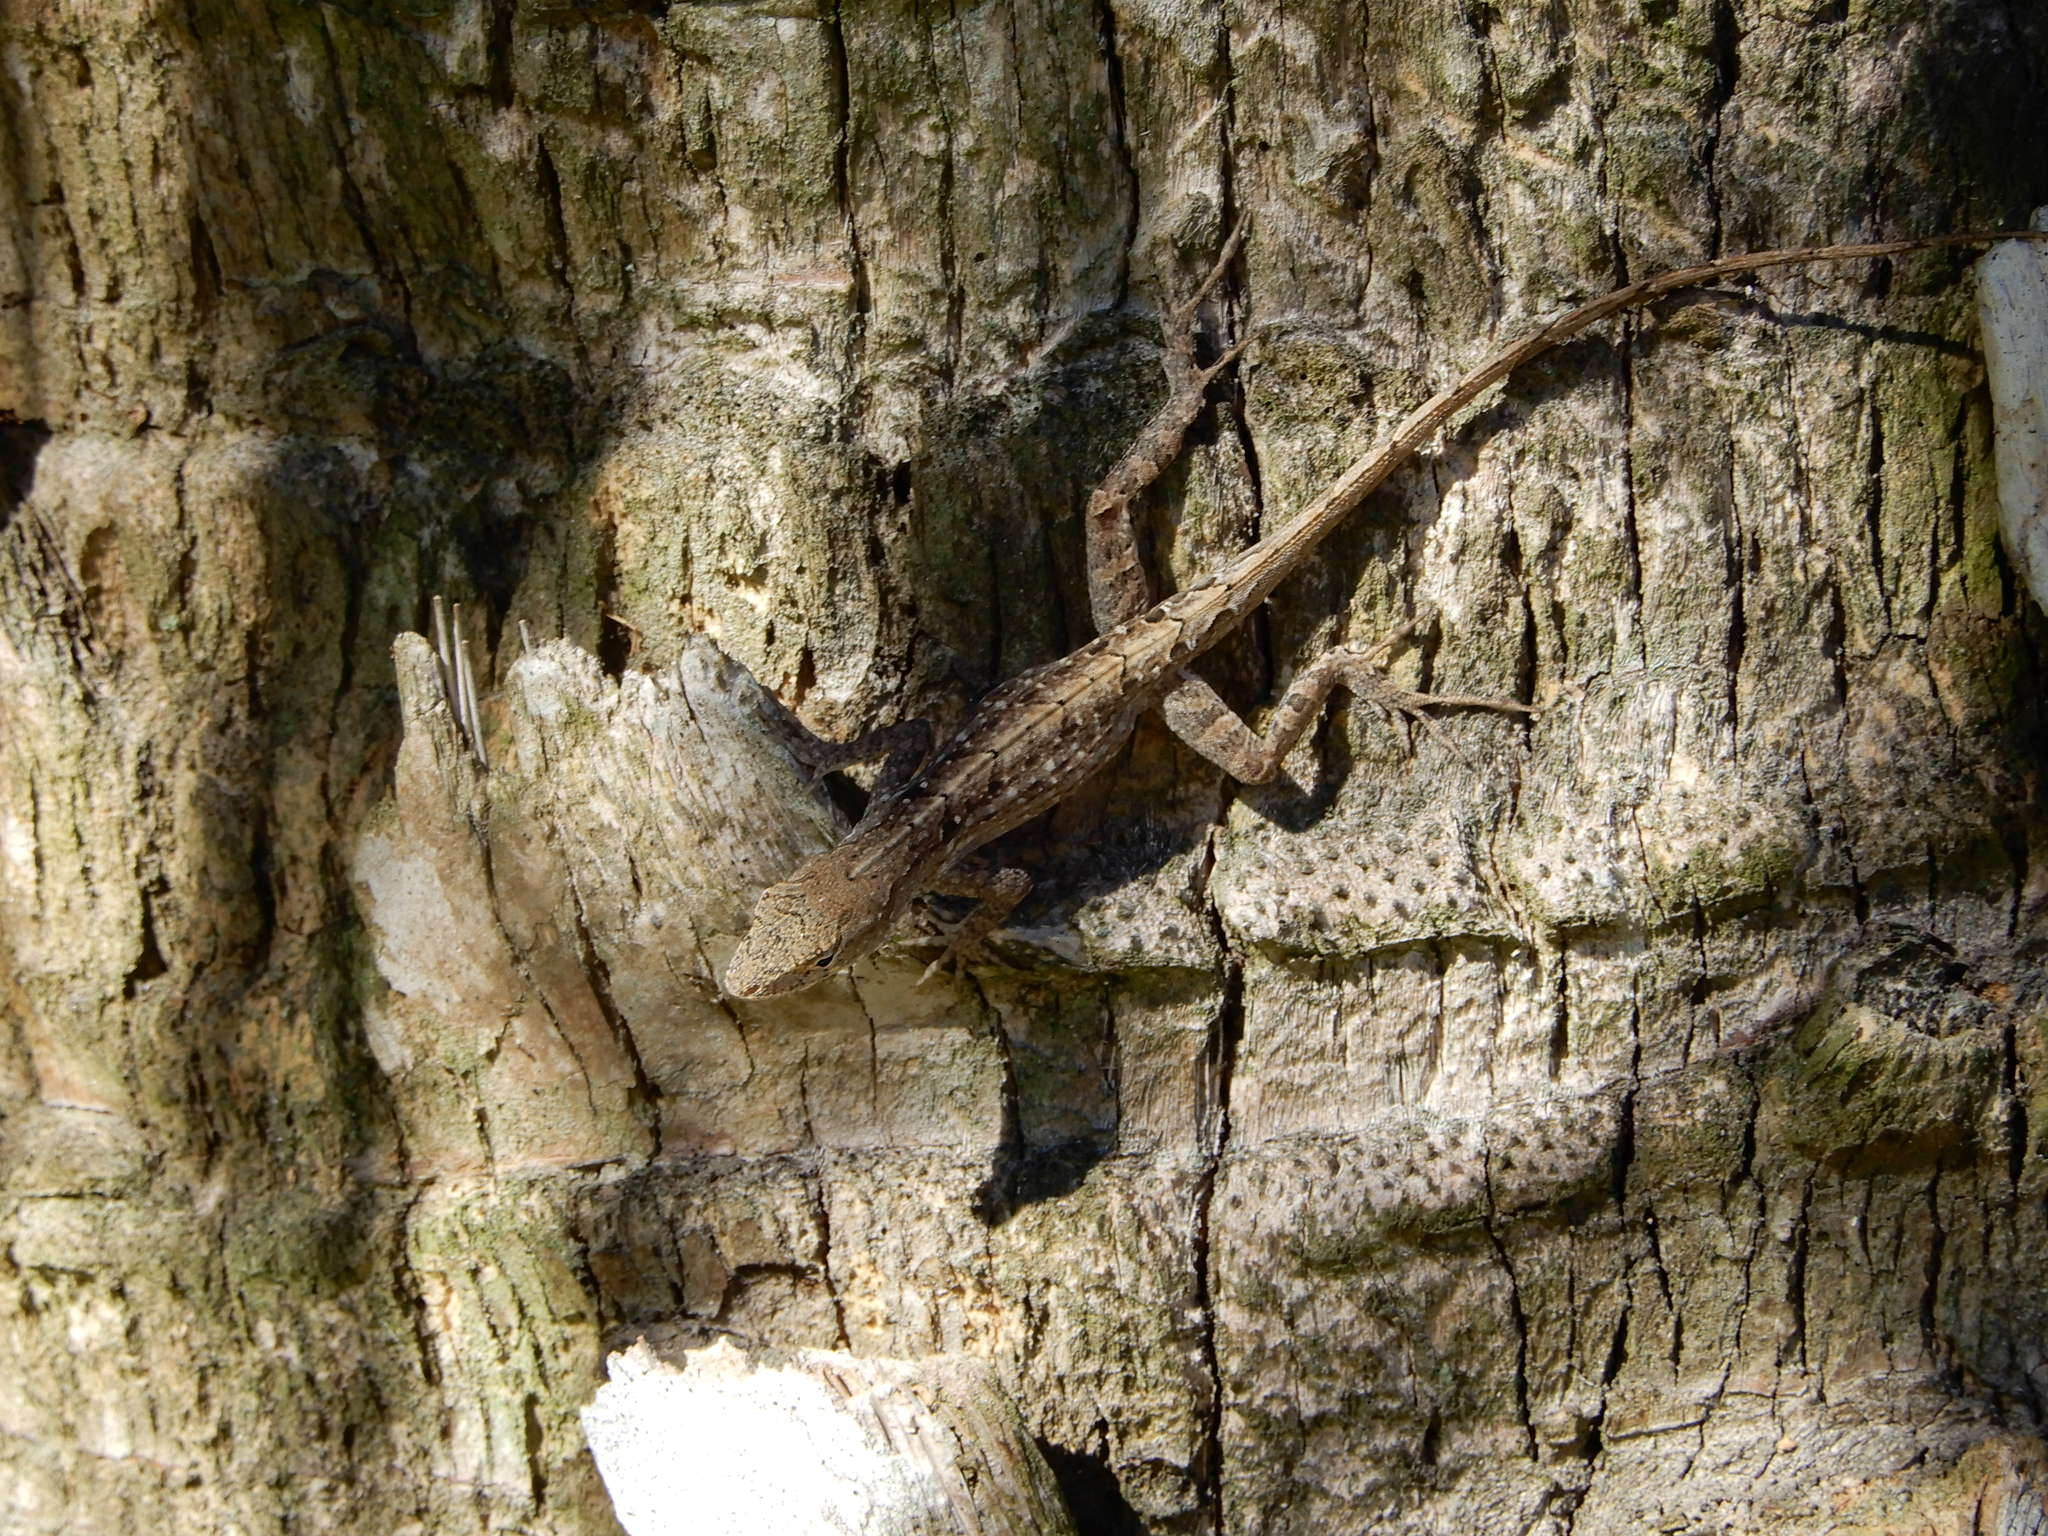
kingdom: Animalia
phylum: Chordata
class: Squamata
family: Dactyloidae
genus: Anolis
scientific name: Anolis sagrei
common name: Brown anole
